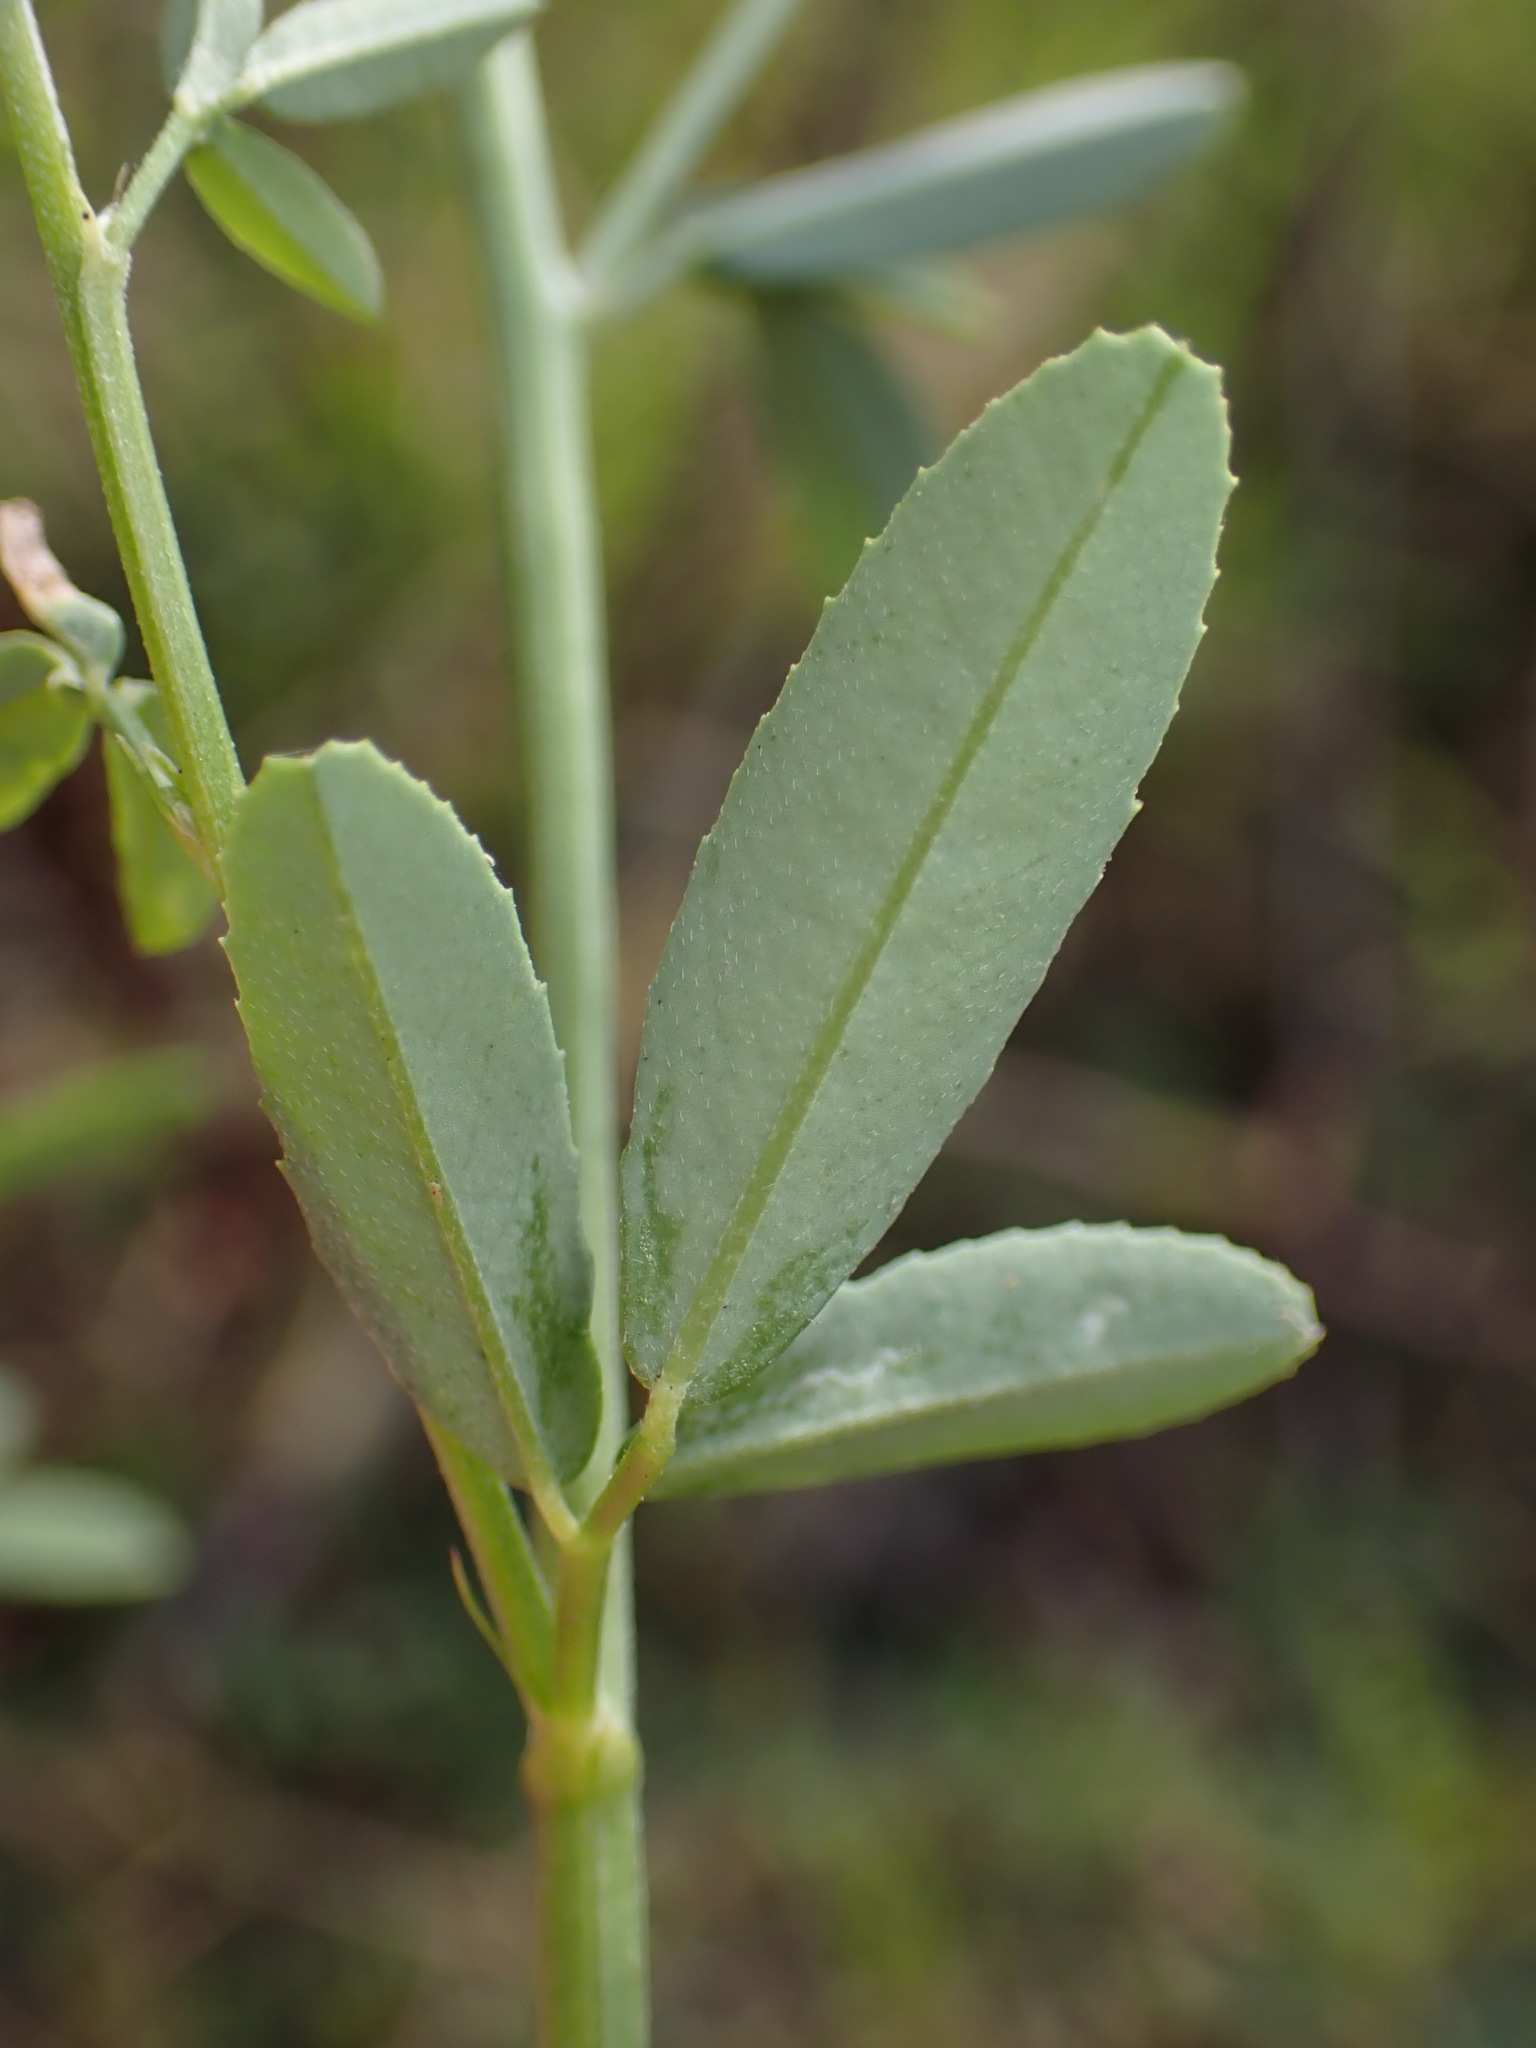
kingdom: Plantae
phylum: Tracheophyta
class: Magnoliopsida
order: Fabales
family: Fabaceae
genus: Melilotus
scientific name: Melilotus albus
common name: White melilot
